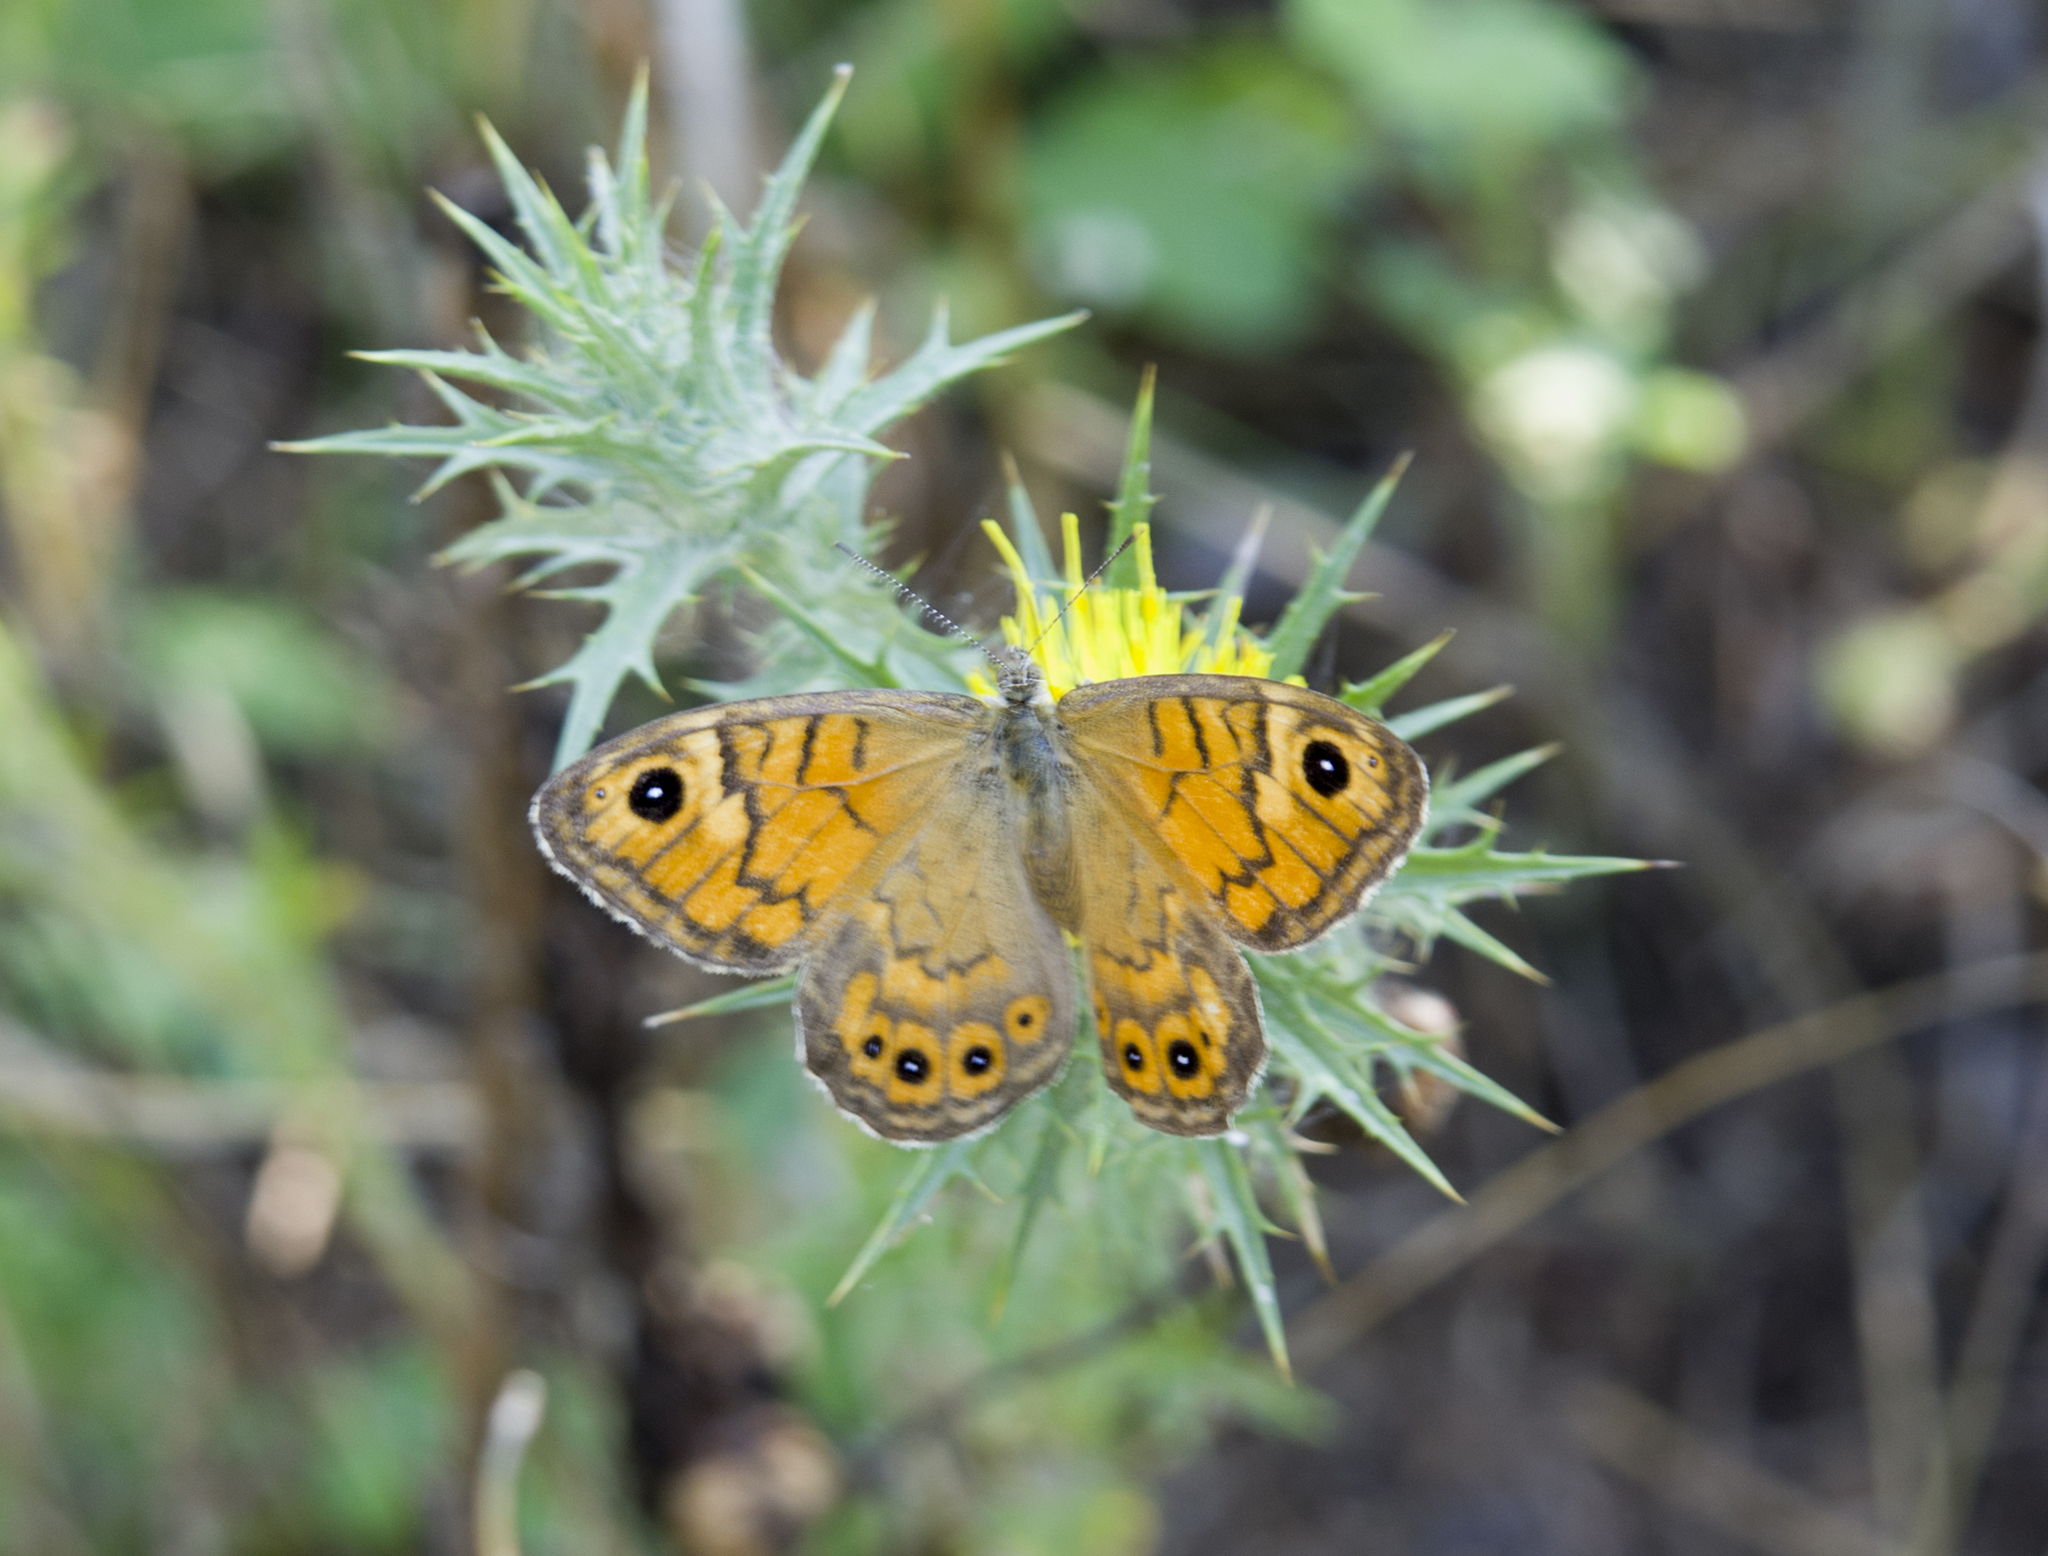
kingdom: Animalia
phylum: Arthropoda
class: Insecta
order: Lepidoptera
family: Nymphalidae
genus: Pararge
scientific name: Pararge Lasiommata megera
